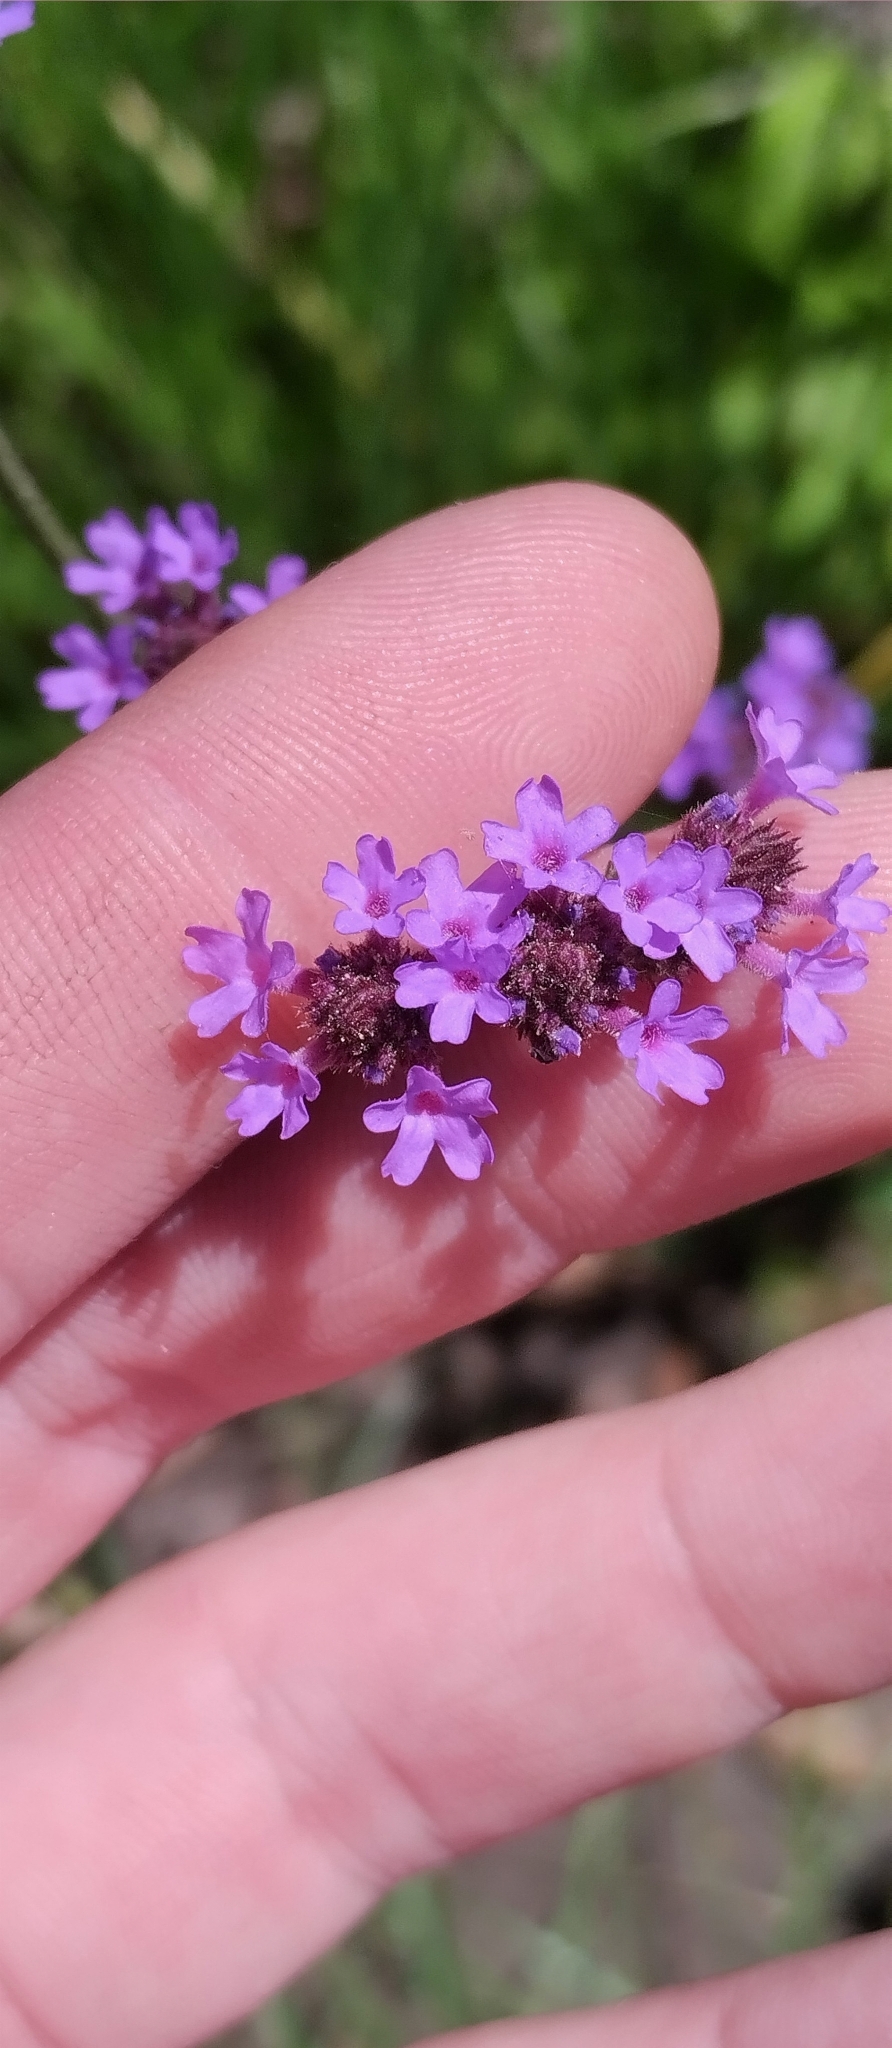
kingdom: Plantae
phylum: Tracheophyta
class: Magnoliopsida
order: Lamiales
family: Verbenaceae
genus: Verbena
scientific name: Verbena bonariensis
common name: Purpletop vervain
